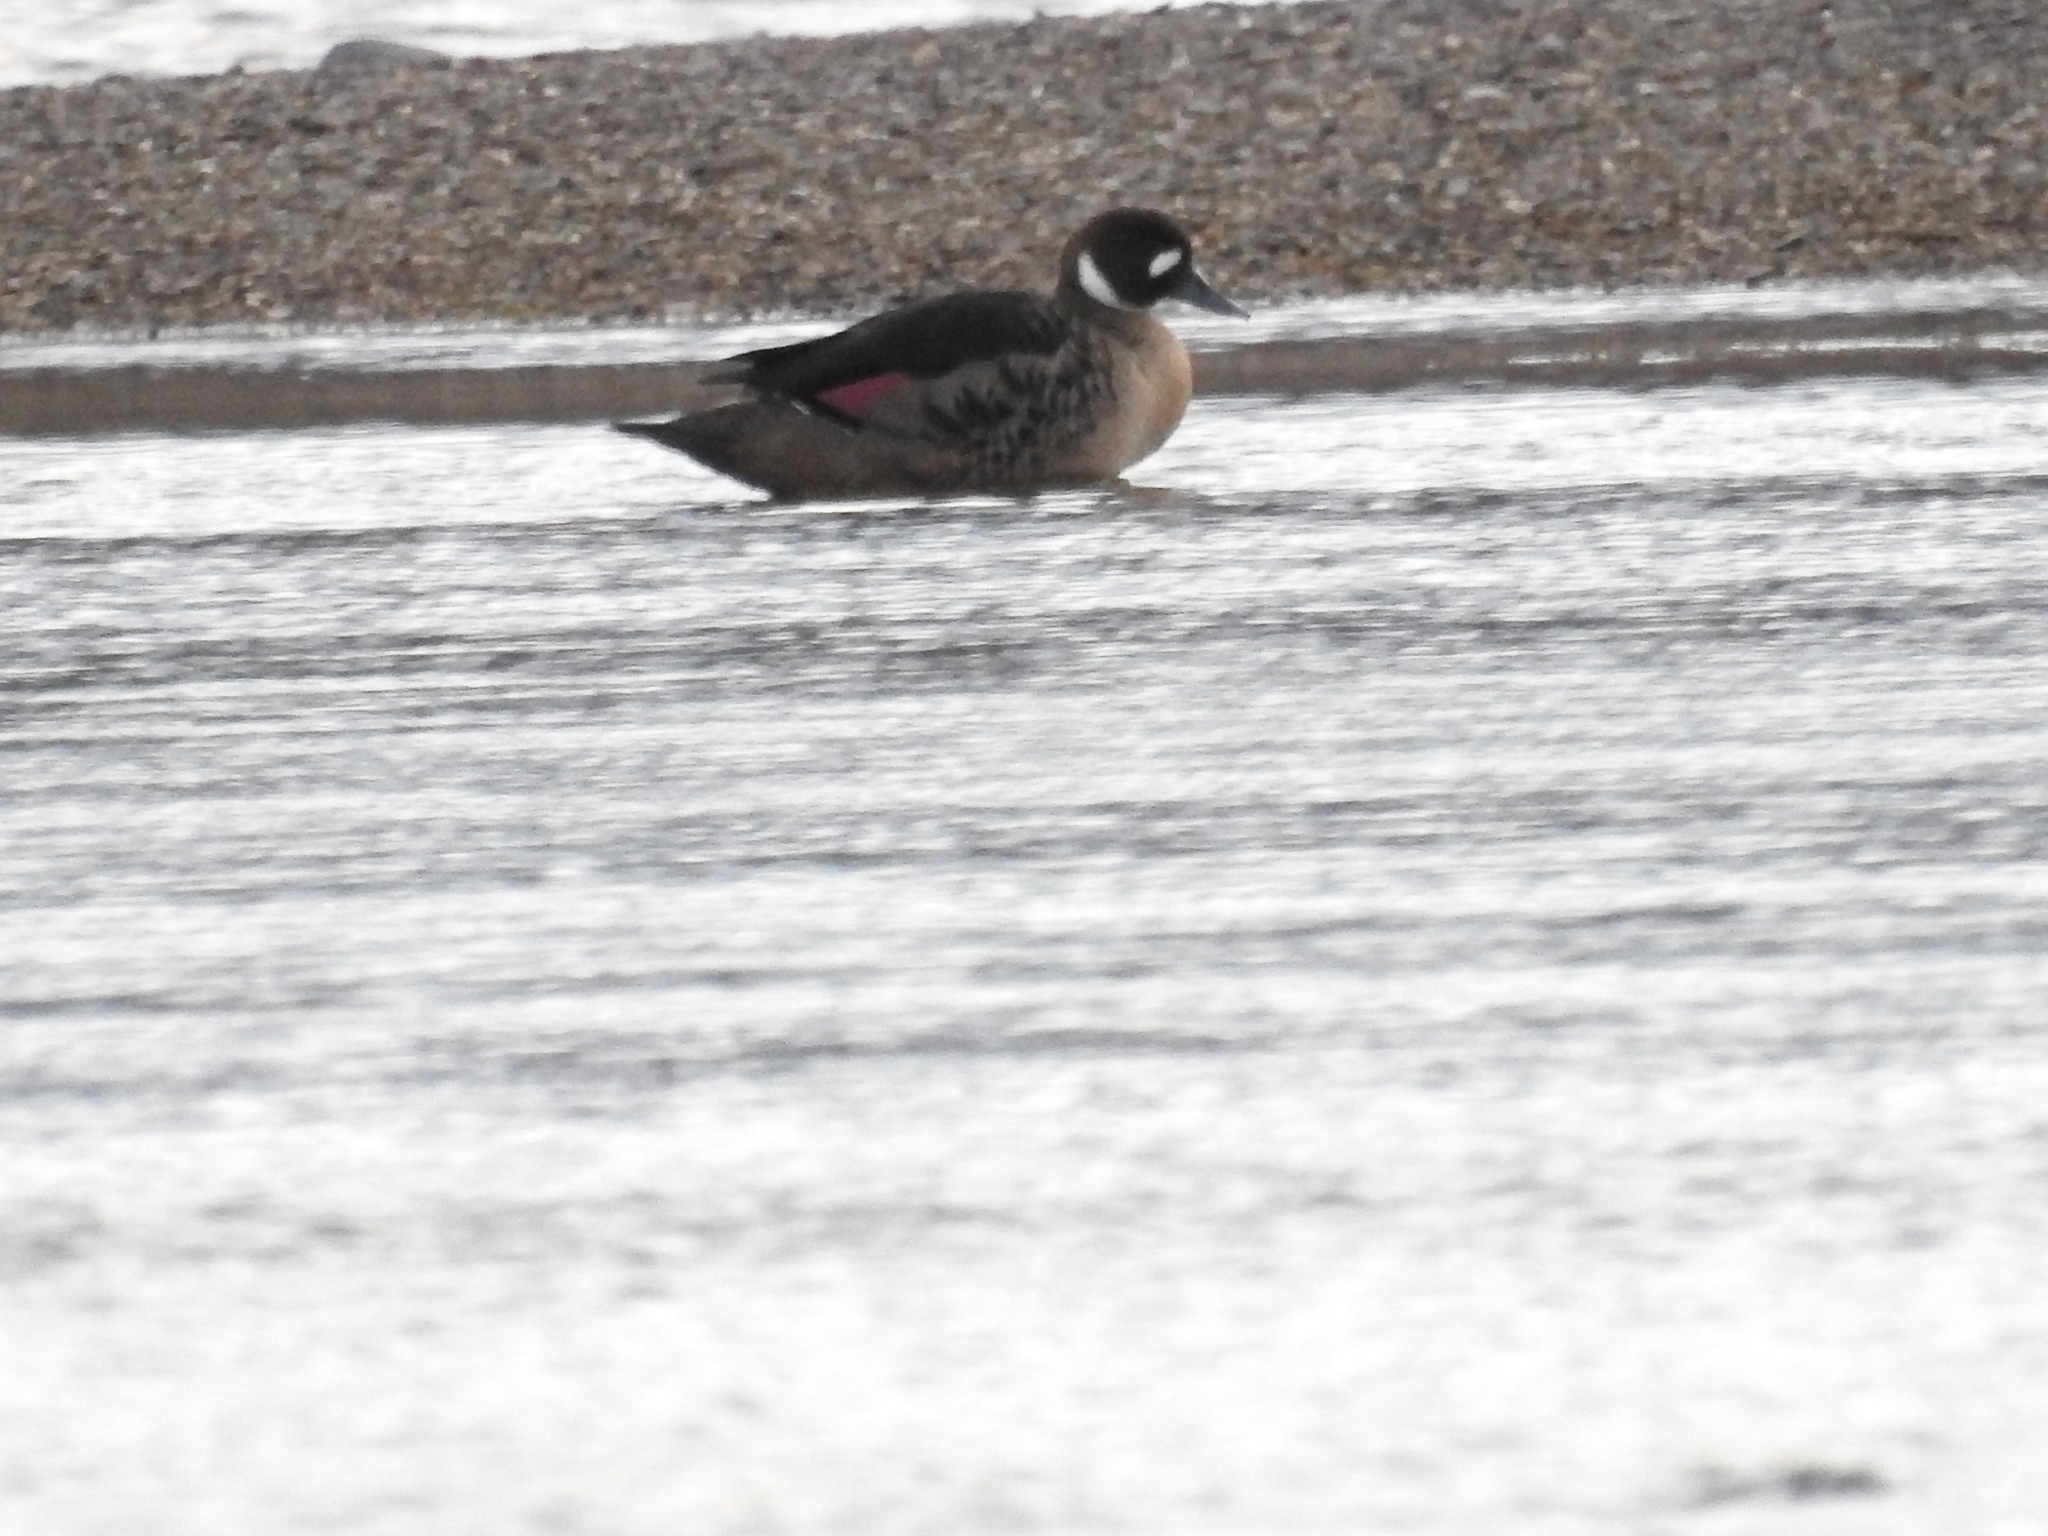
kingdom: Animalia
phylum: Chordata
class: Aves
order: Anseriformes
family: Anatidae
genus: Speculanas
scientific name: Speculanas specularis
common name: Bronze-winged duck
